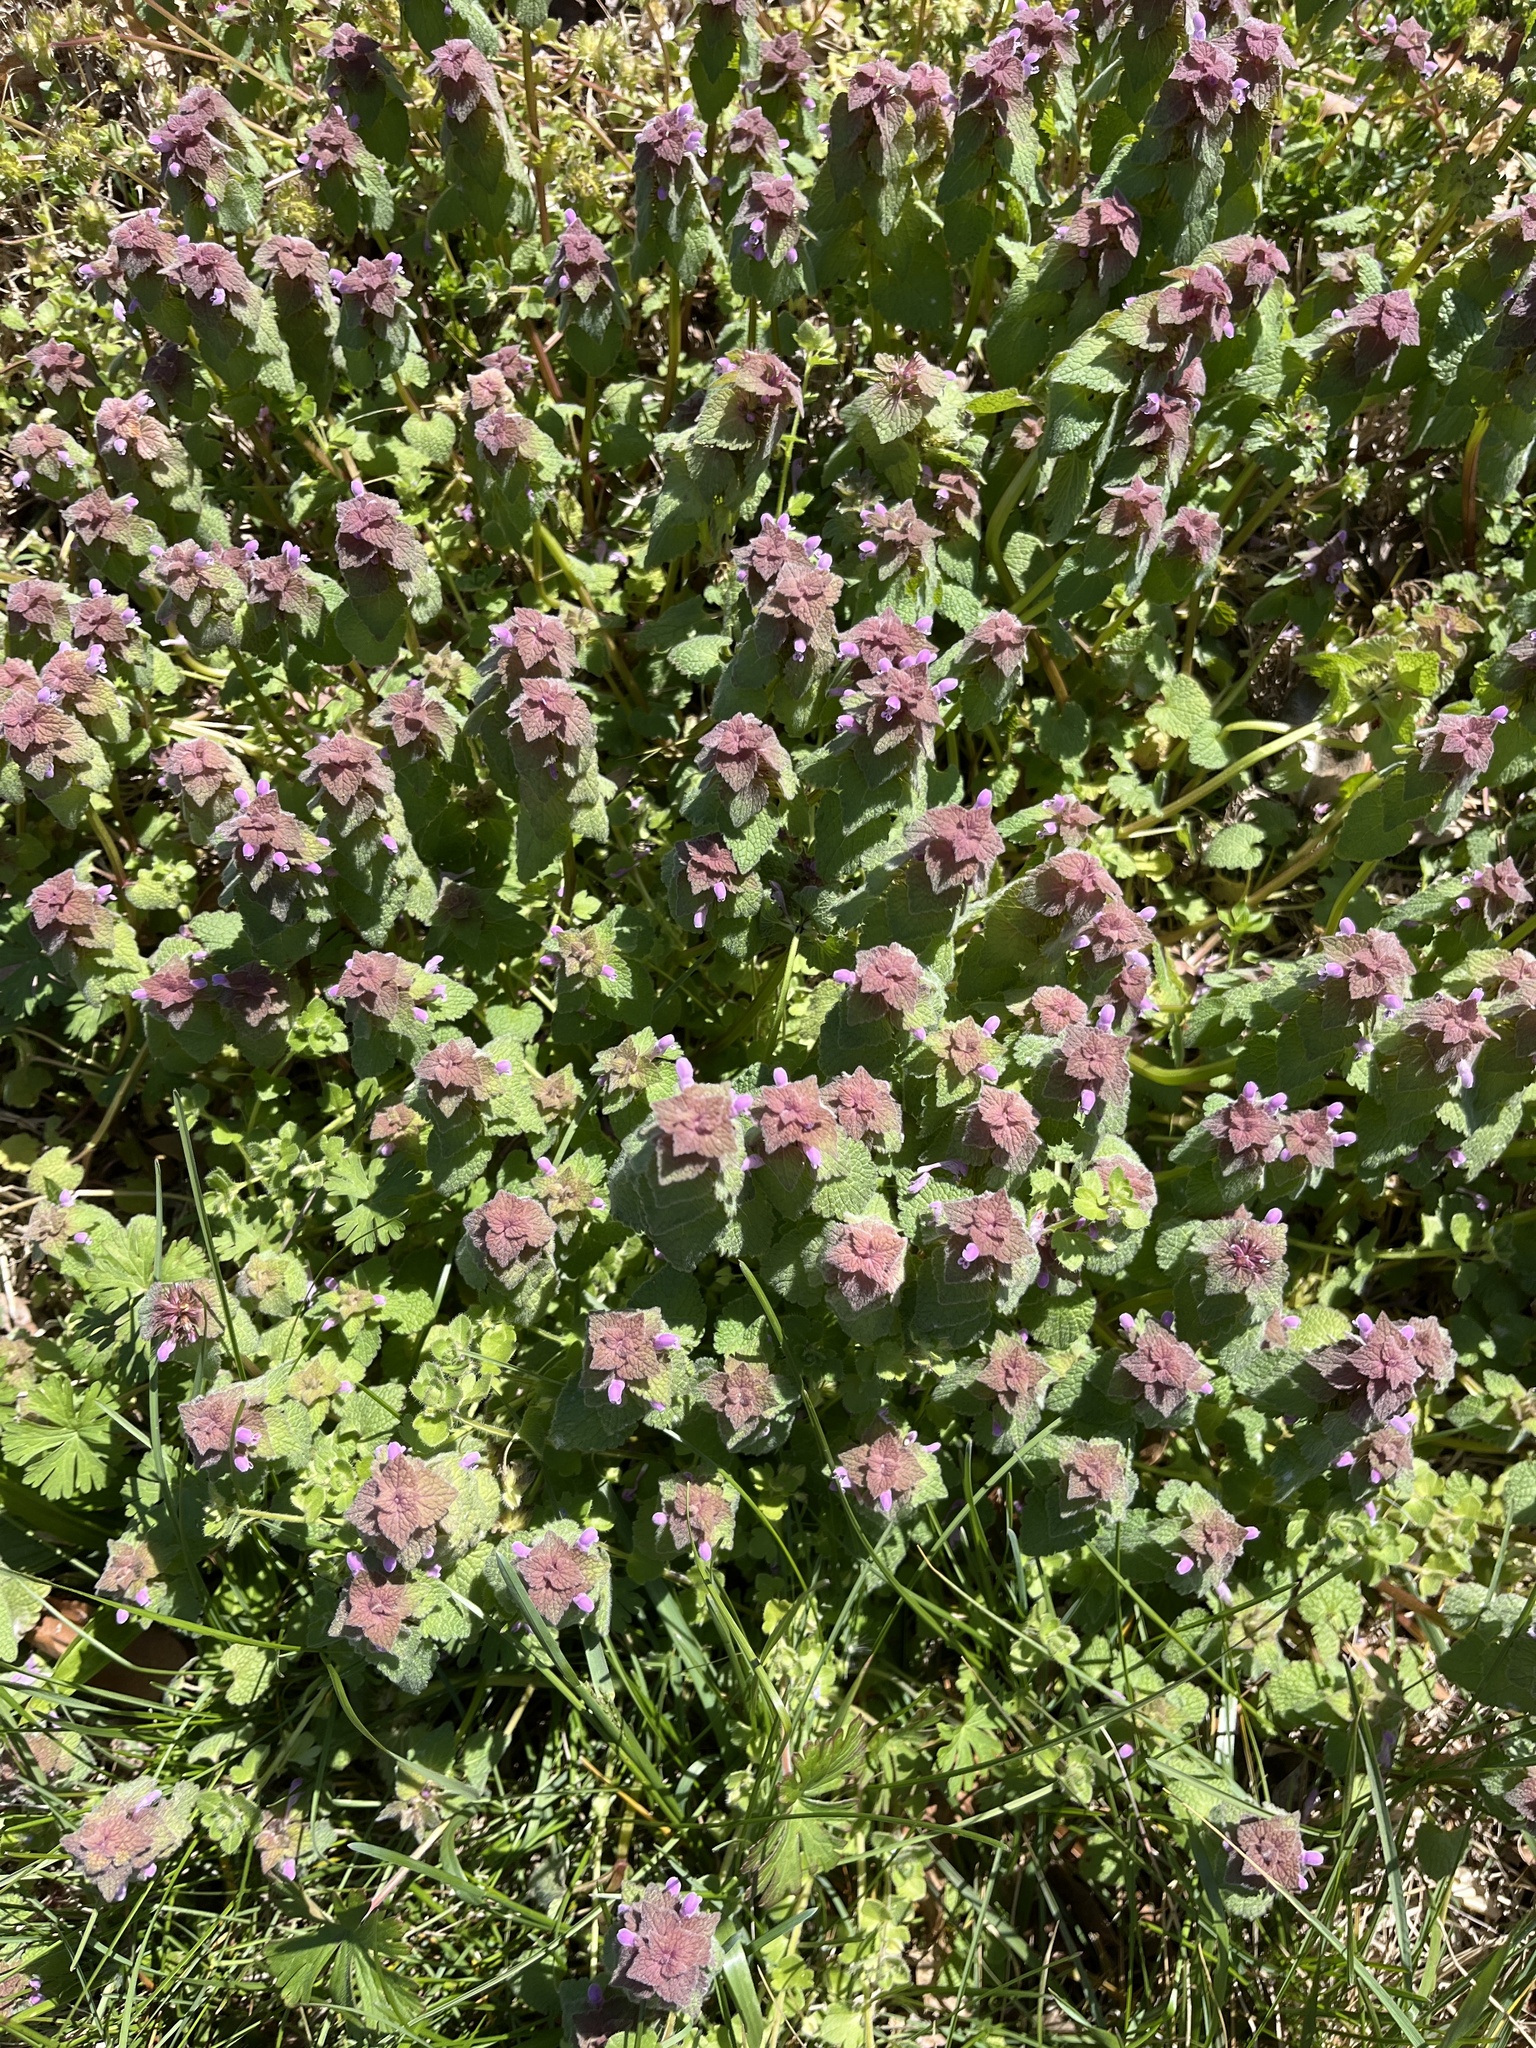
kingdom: Plantae
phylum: Tracheophyta
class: Magnoliopsida
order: Lamiales
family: Lamiaceae
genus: Lamium
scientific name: Lamium purpureum
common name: Red dead-nettle
